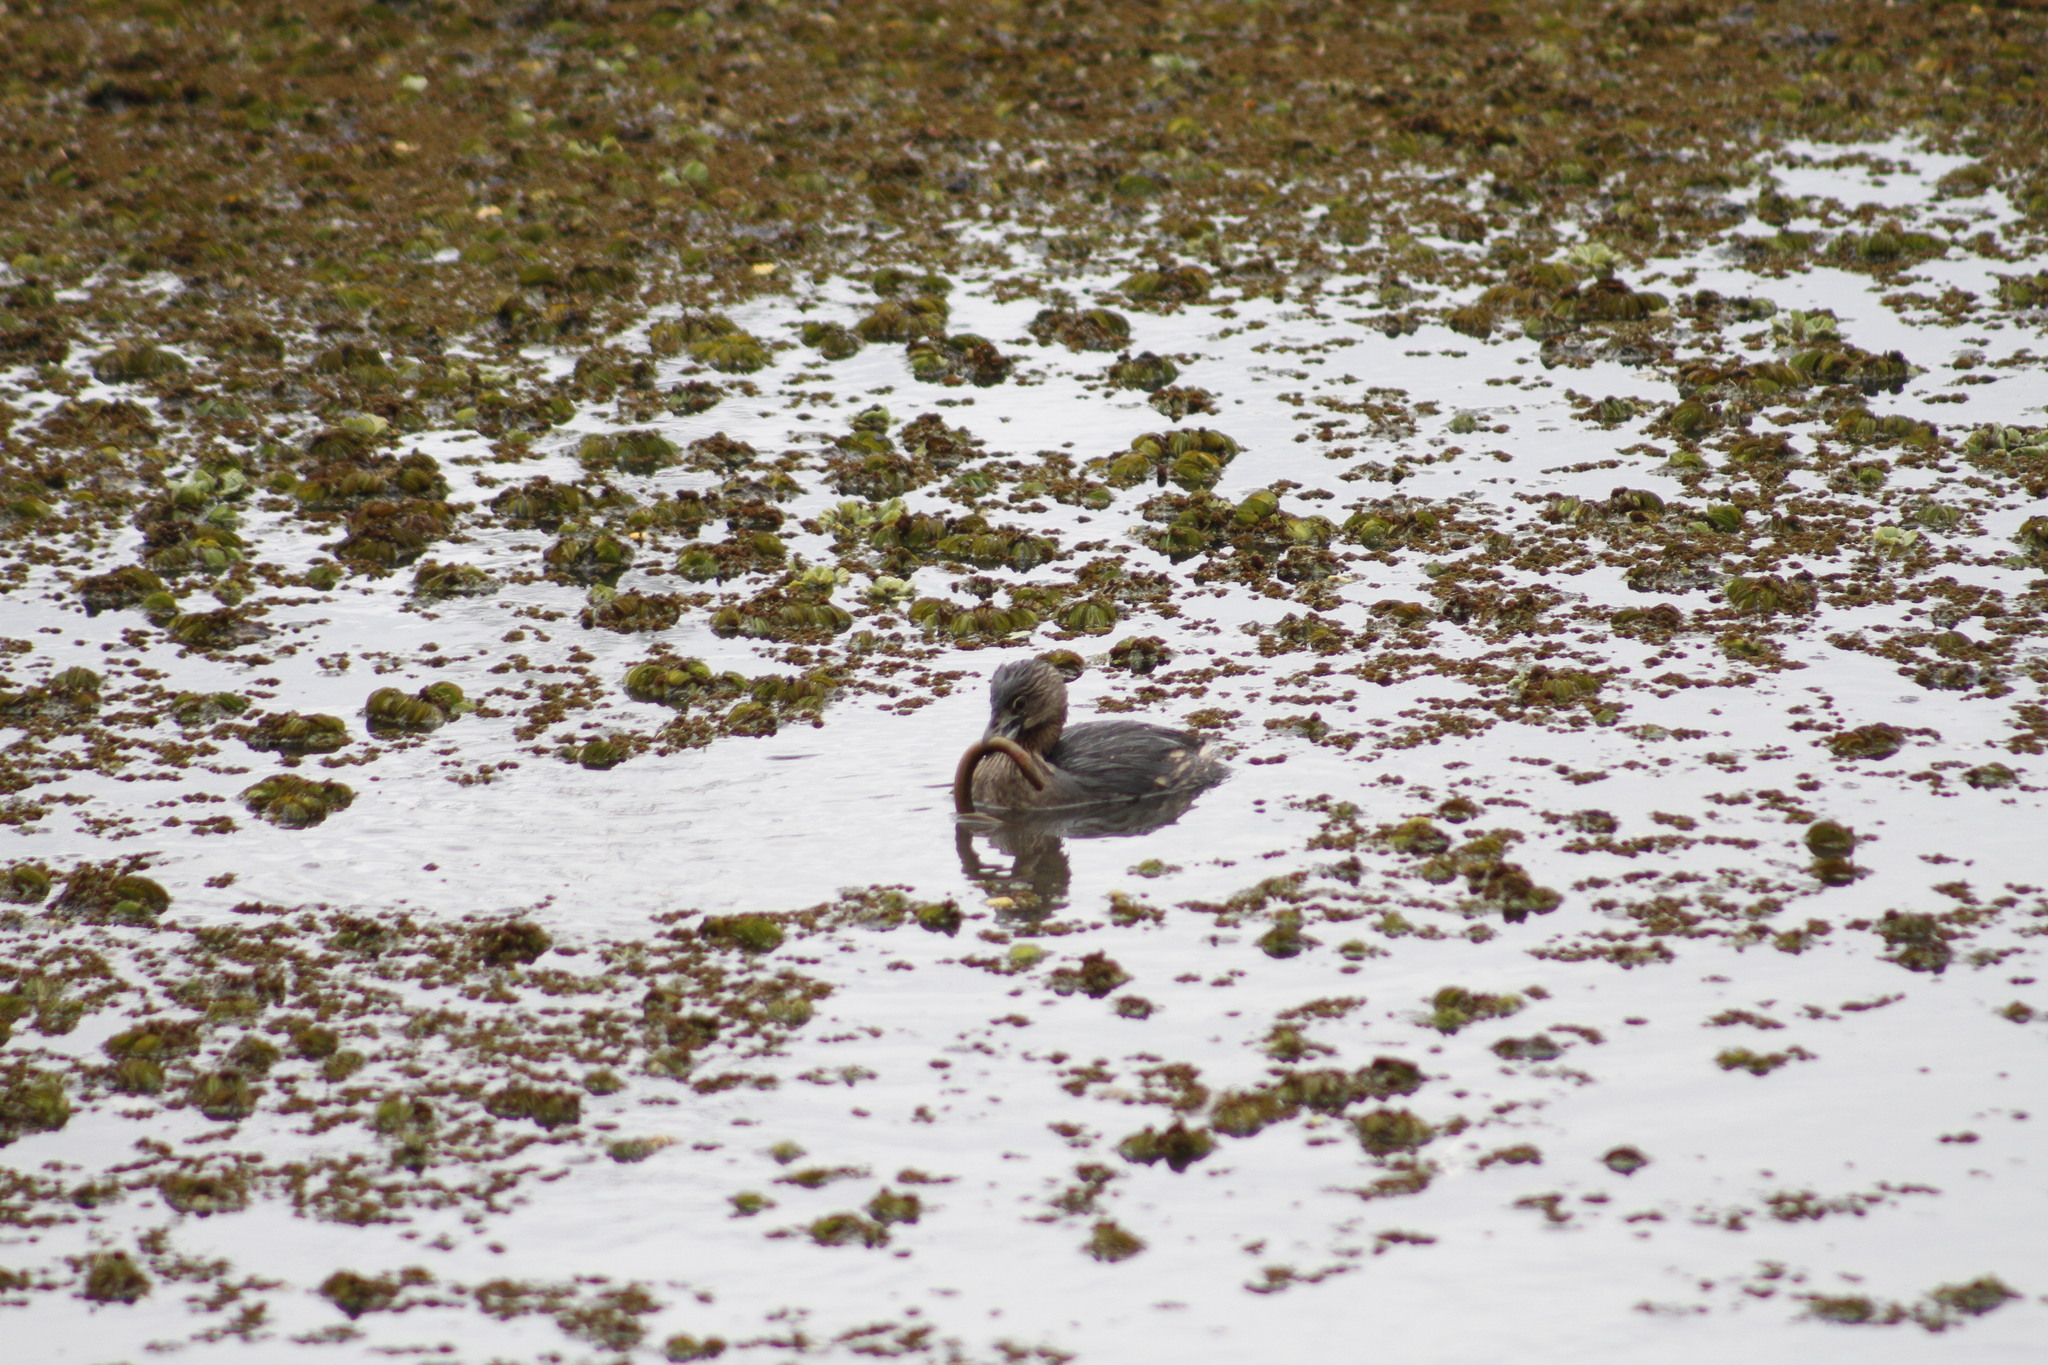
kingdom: Animalia
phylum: Chordata
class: Aves
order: Podicipediformes
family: Podicipedidae
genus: Podilymbus
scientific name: Podilymbus podiceps
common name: Pied-billed grebe
